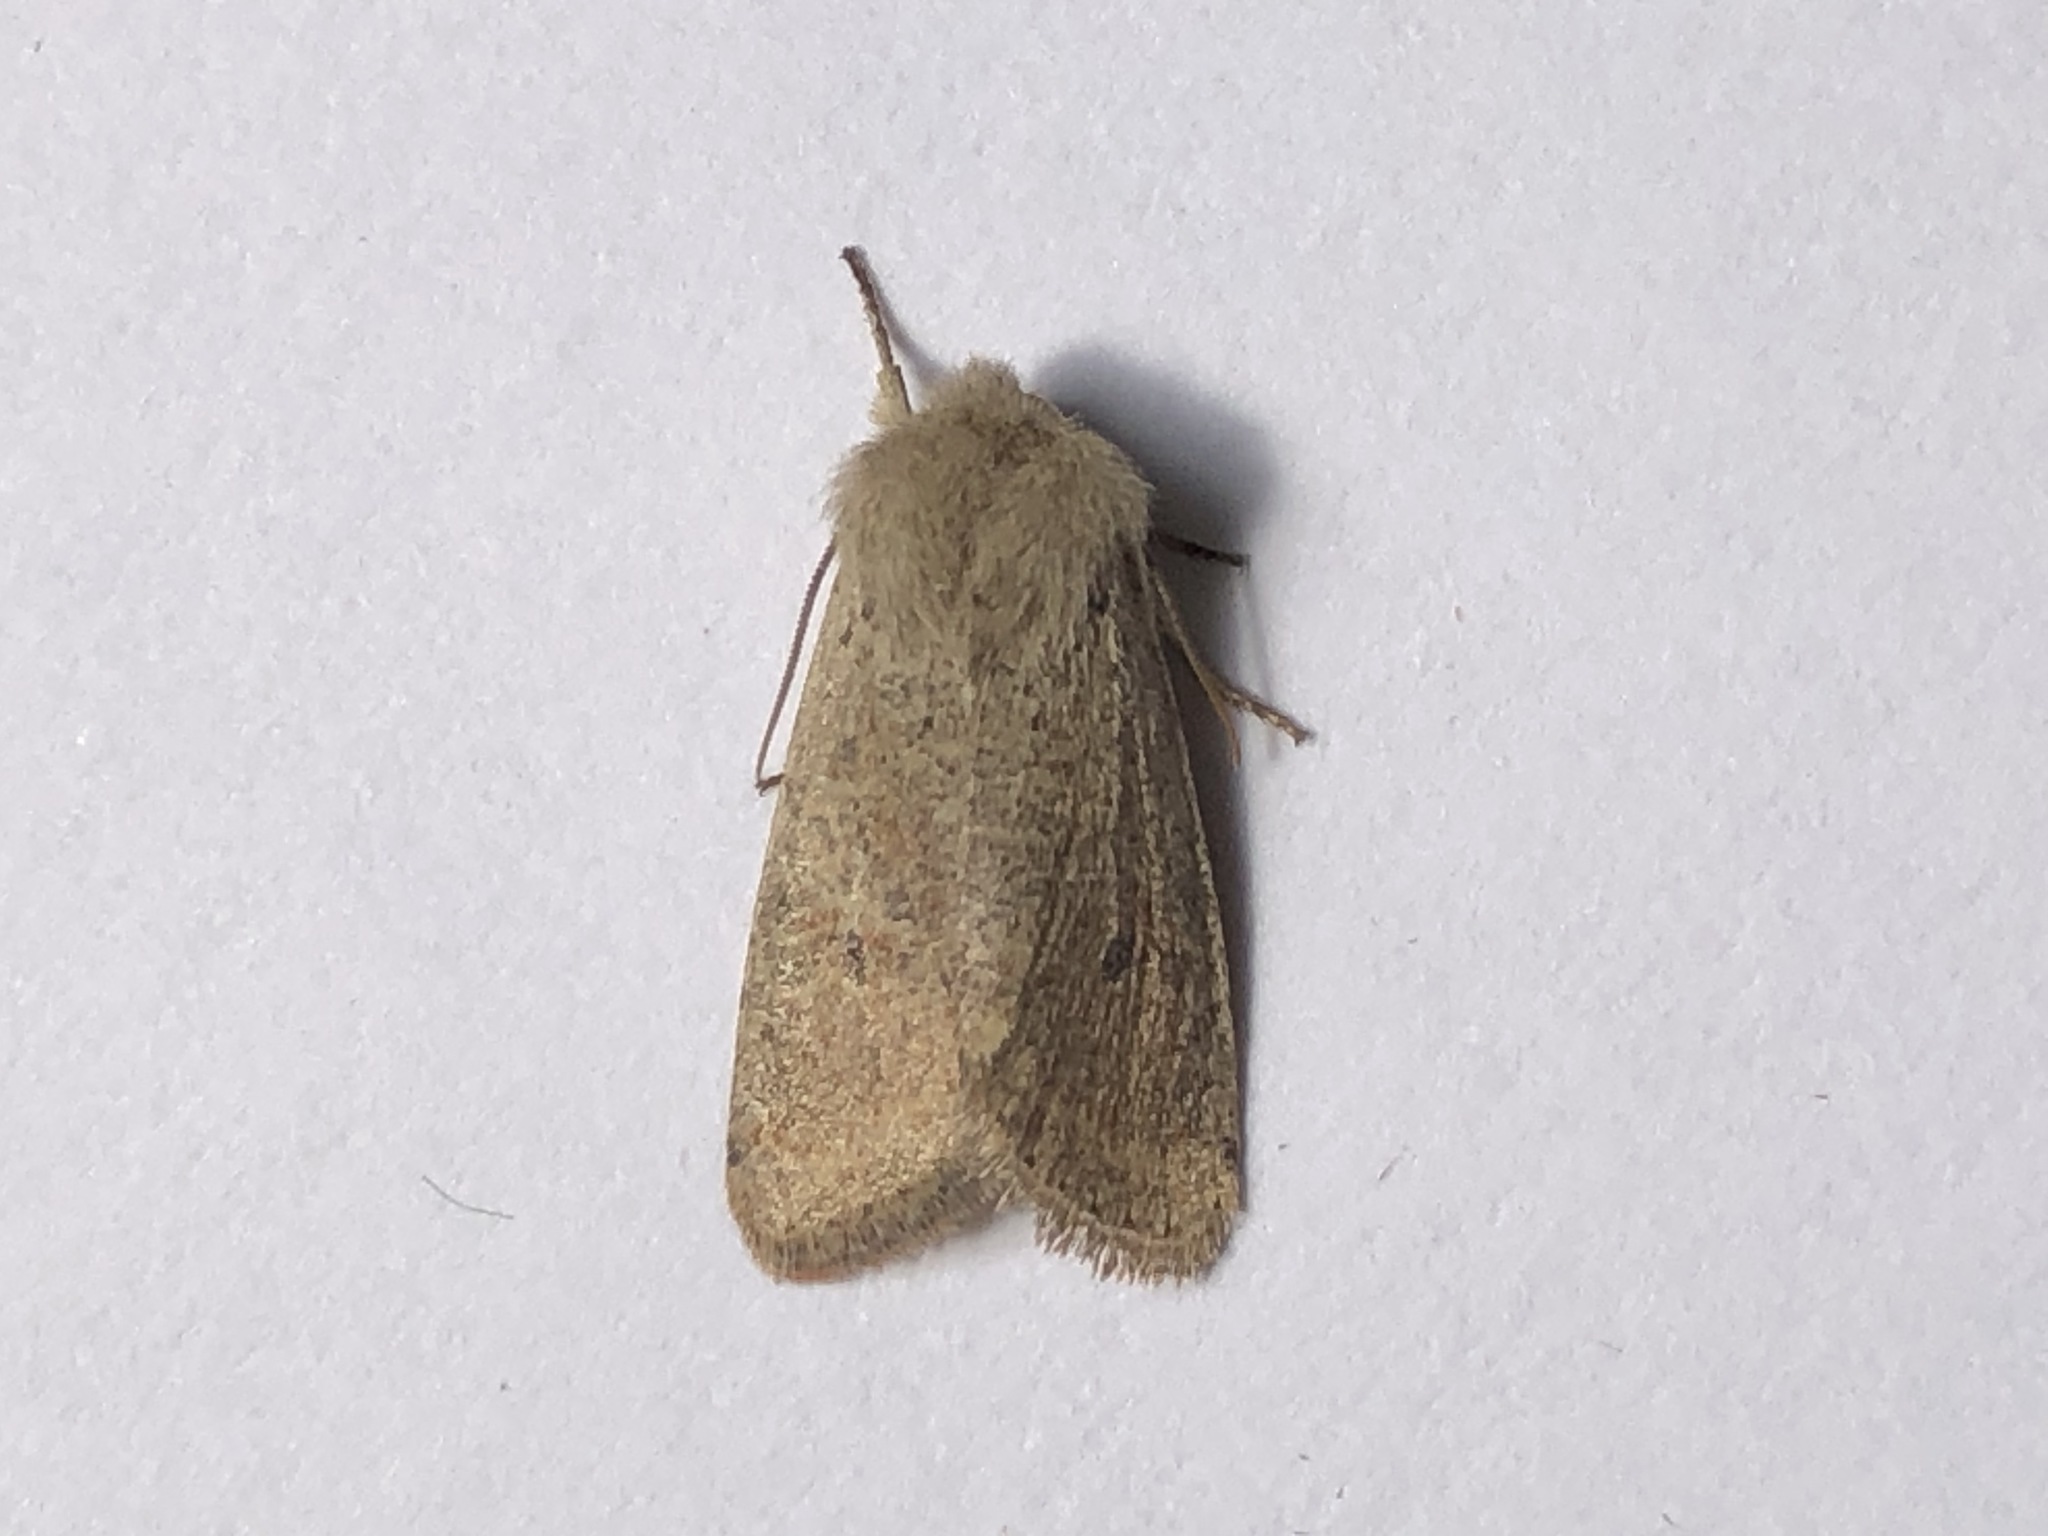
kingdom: Animalia
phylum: Arthropoda
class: Insecta
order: Lepidoptera
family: Noctuidae
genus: Orthosia
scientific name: Orthosia cruda
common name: Small quaker
